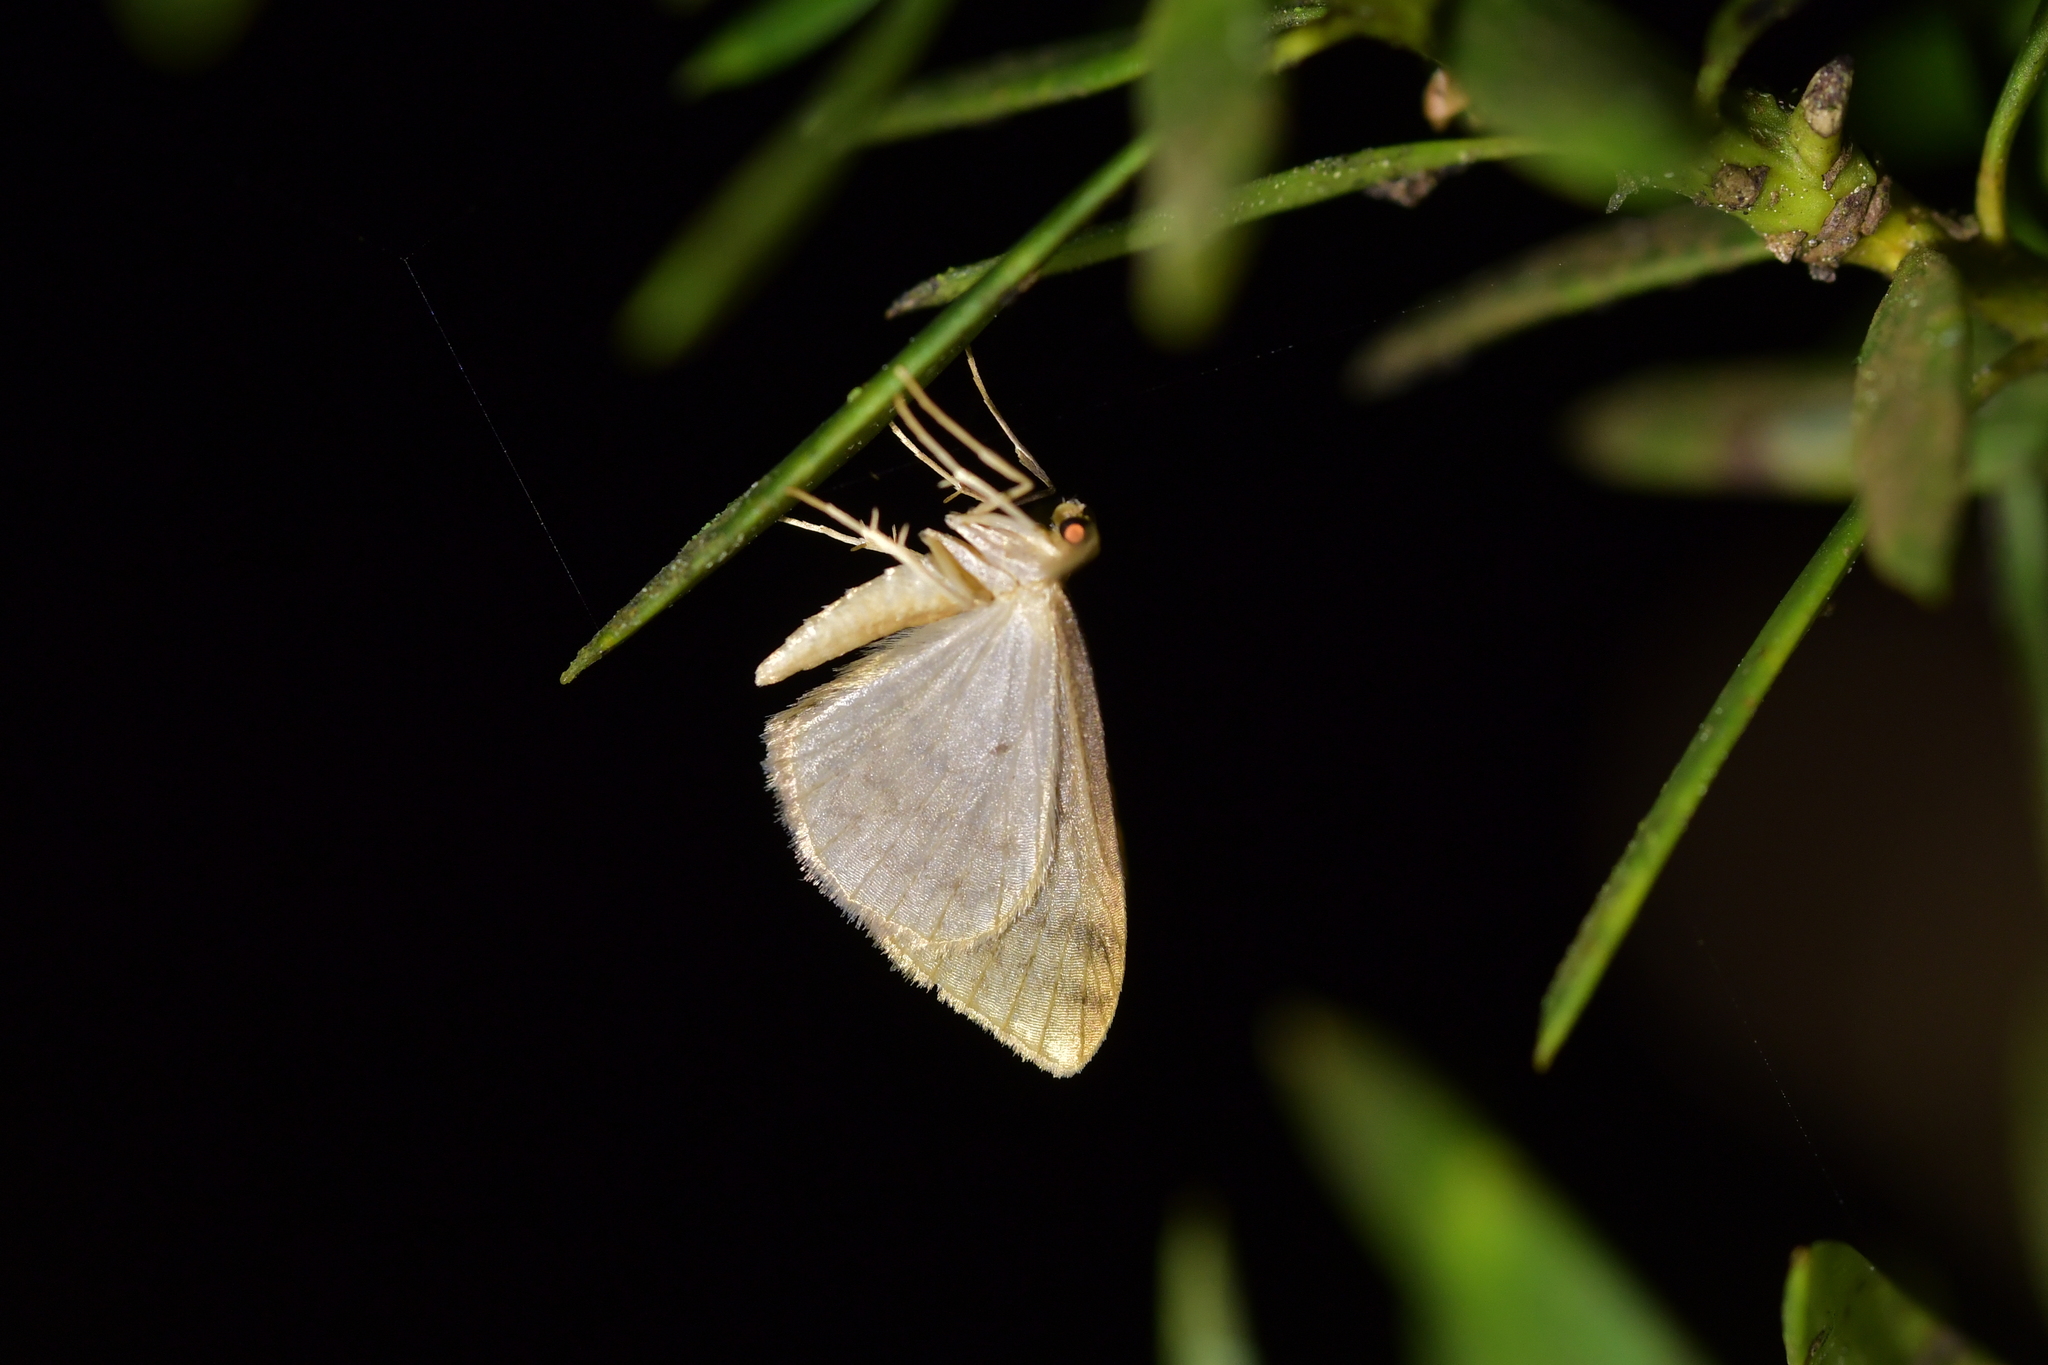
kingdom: Animalia
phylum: Arthropoda
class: Insecta
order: Lepidoptera
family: Geometridae
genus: Epiphryne
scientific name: Epiphryne undosata
